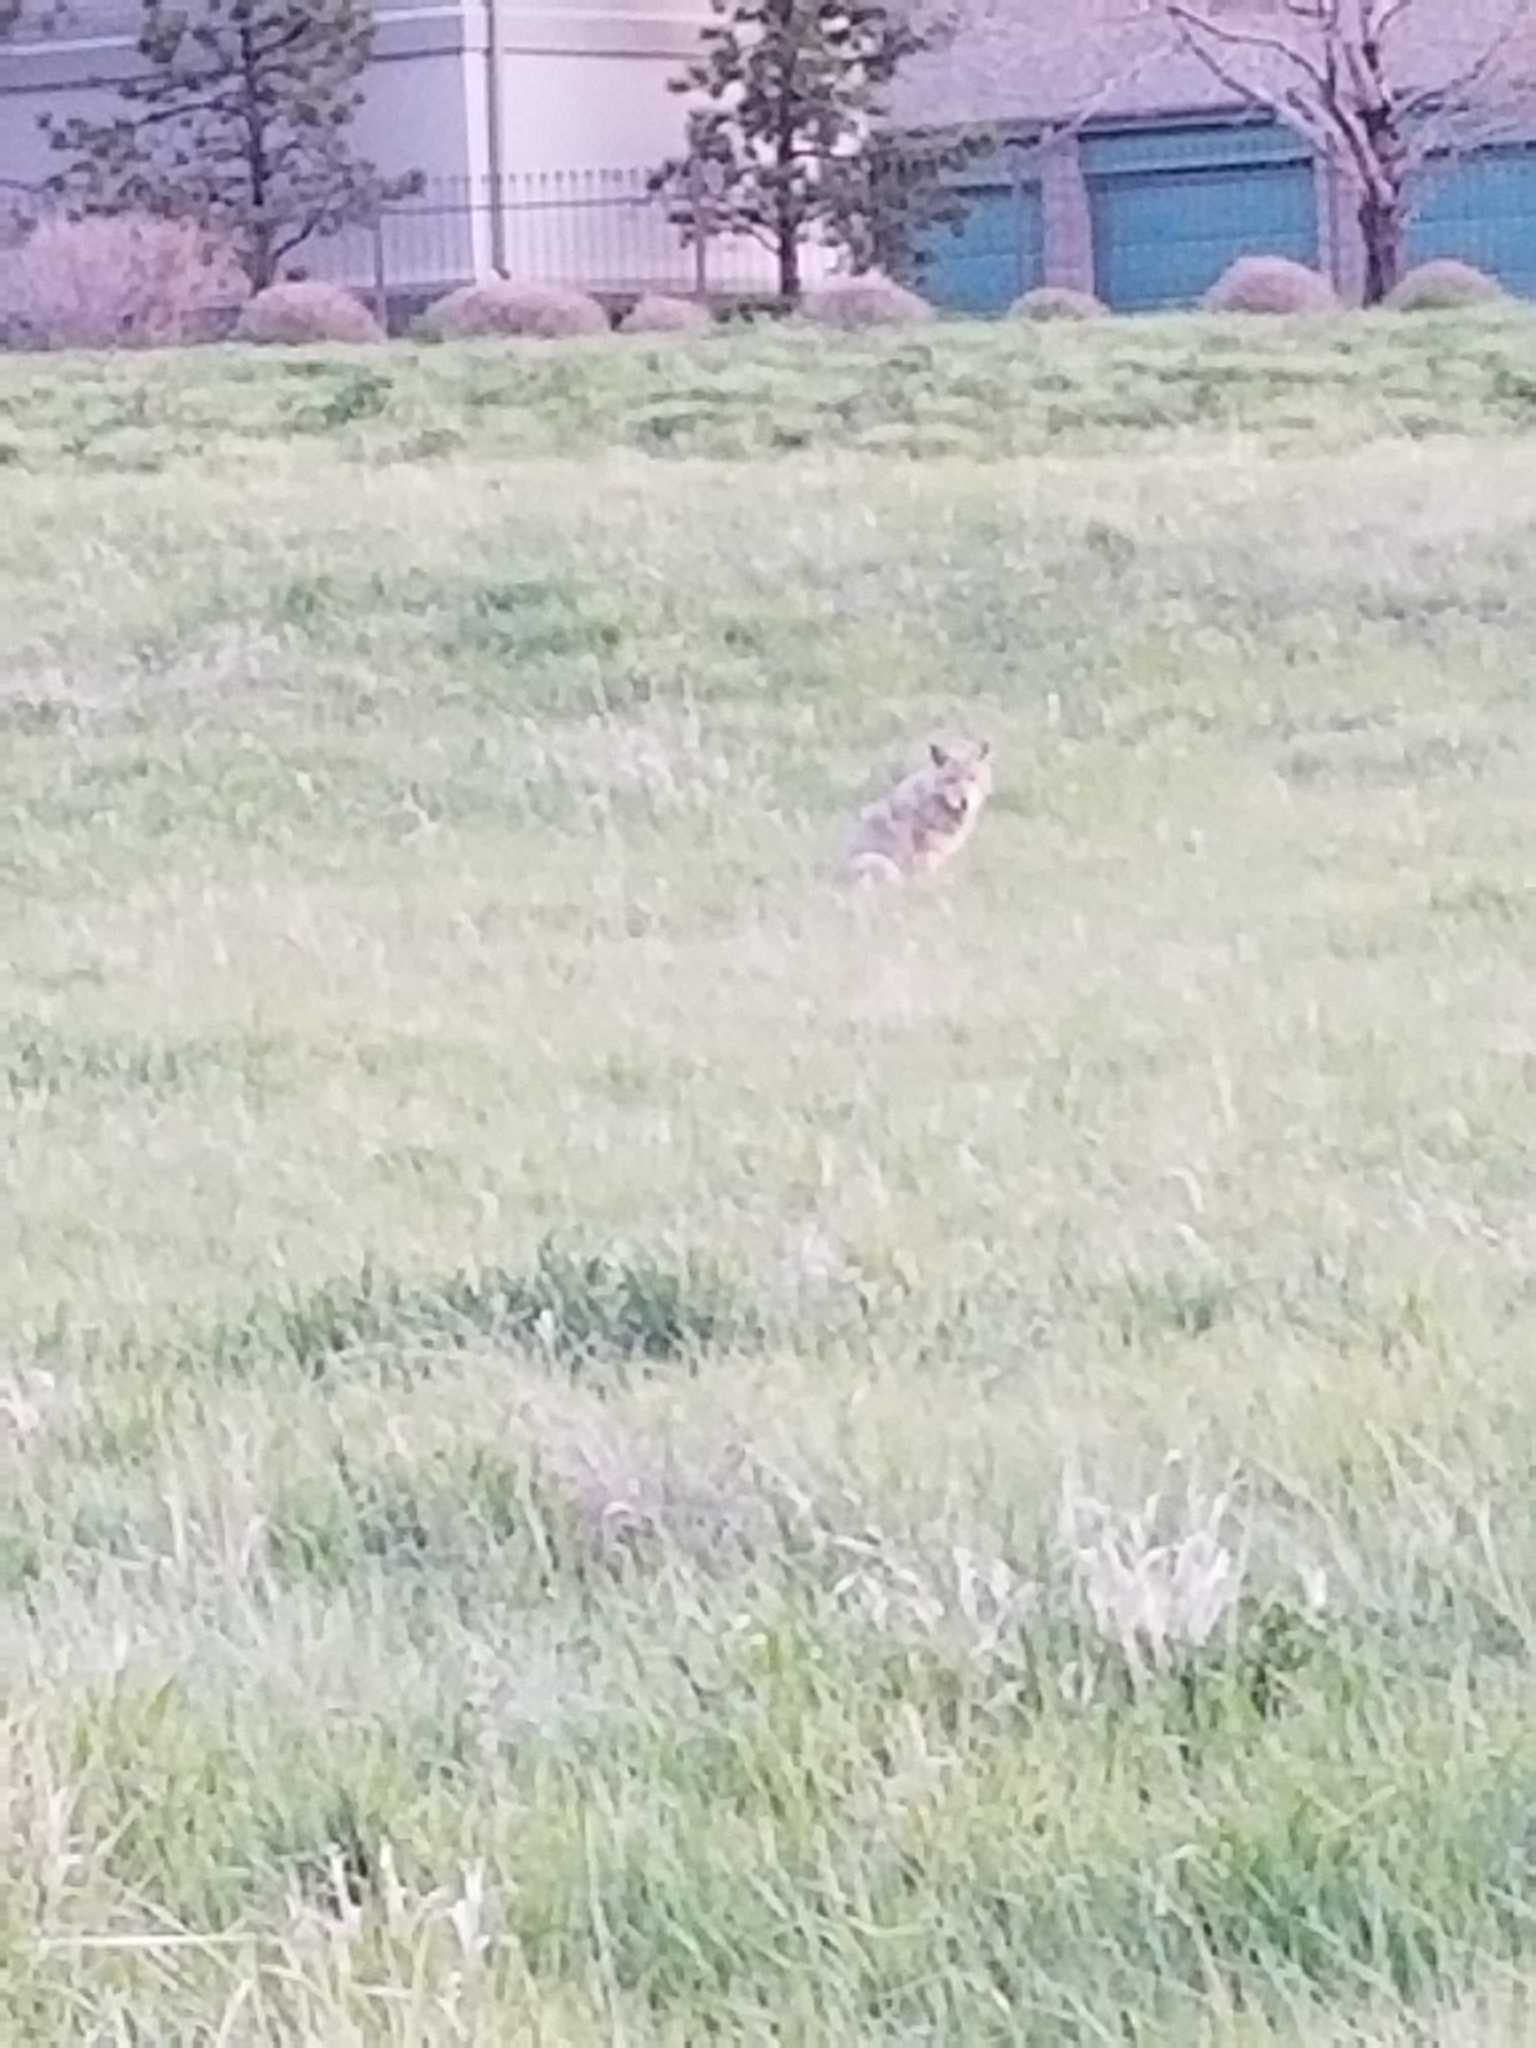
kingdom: Animalia
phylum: Chordata
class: Mammalia
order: Carnivora
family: Canidae
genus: Canis
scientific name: Canis latrans
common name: Coyote
